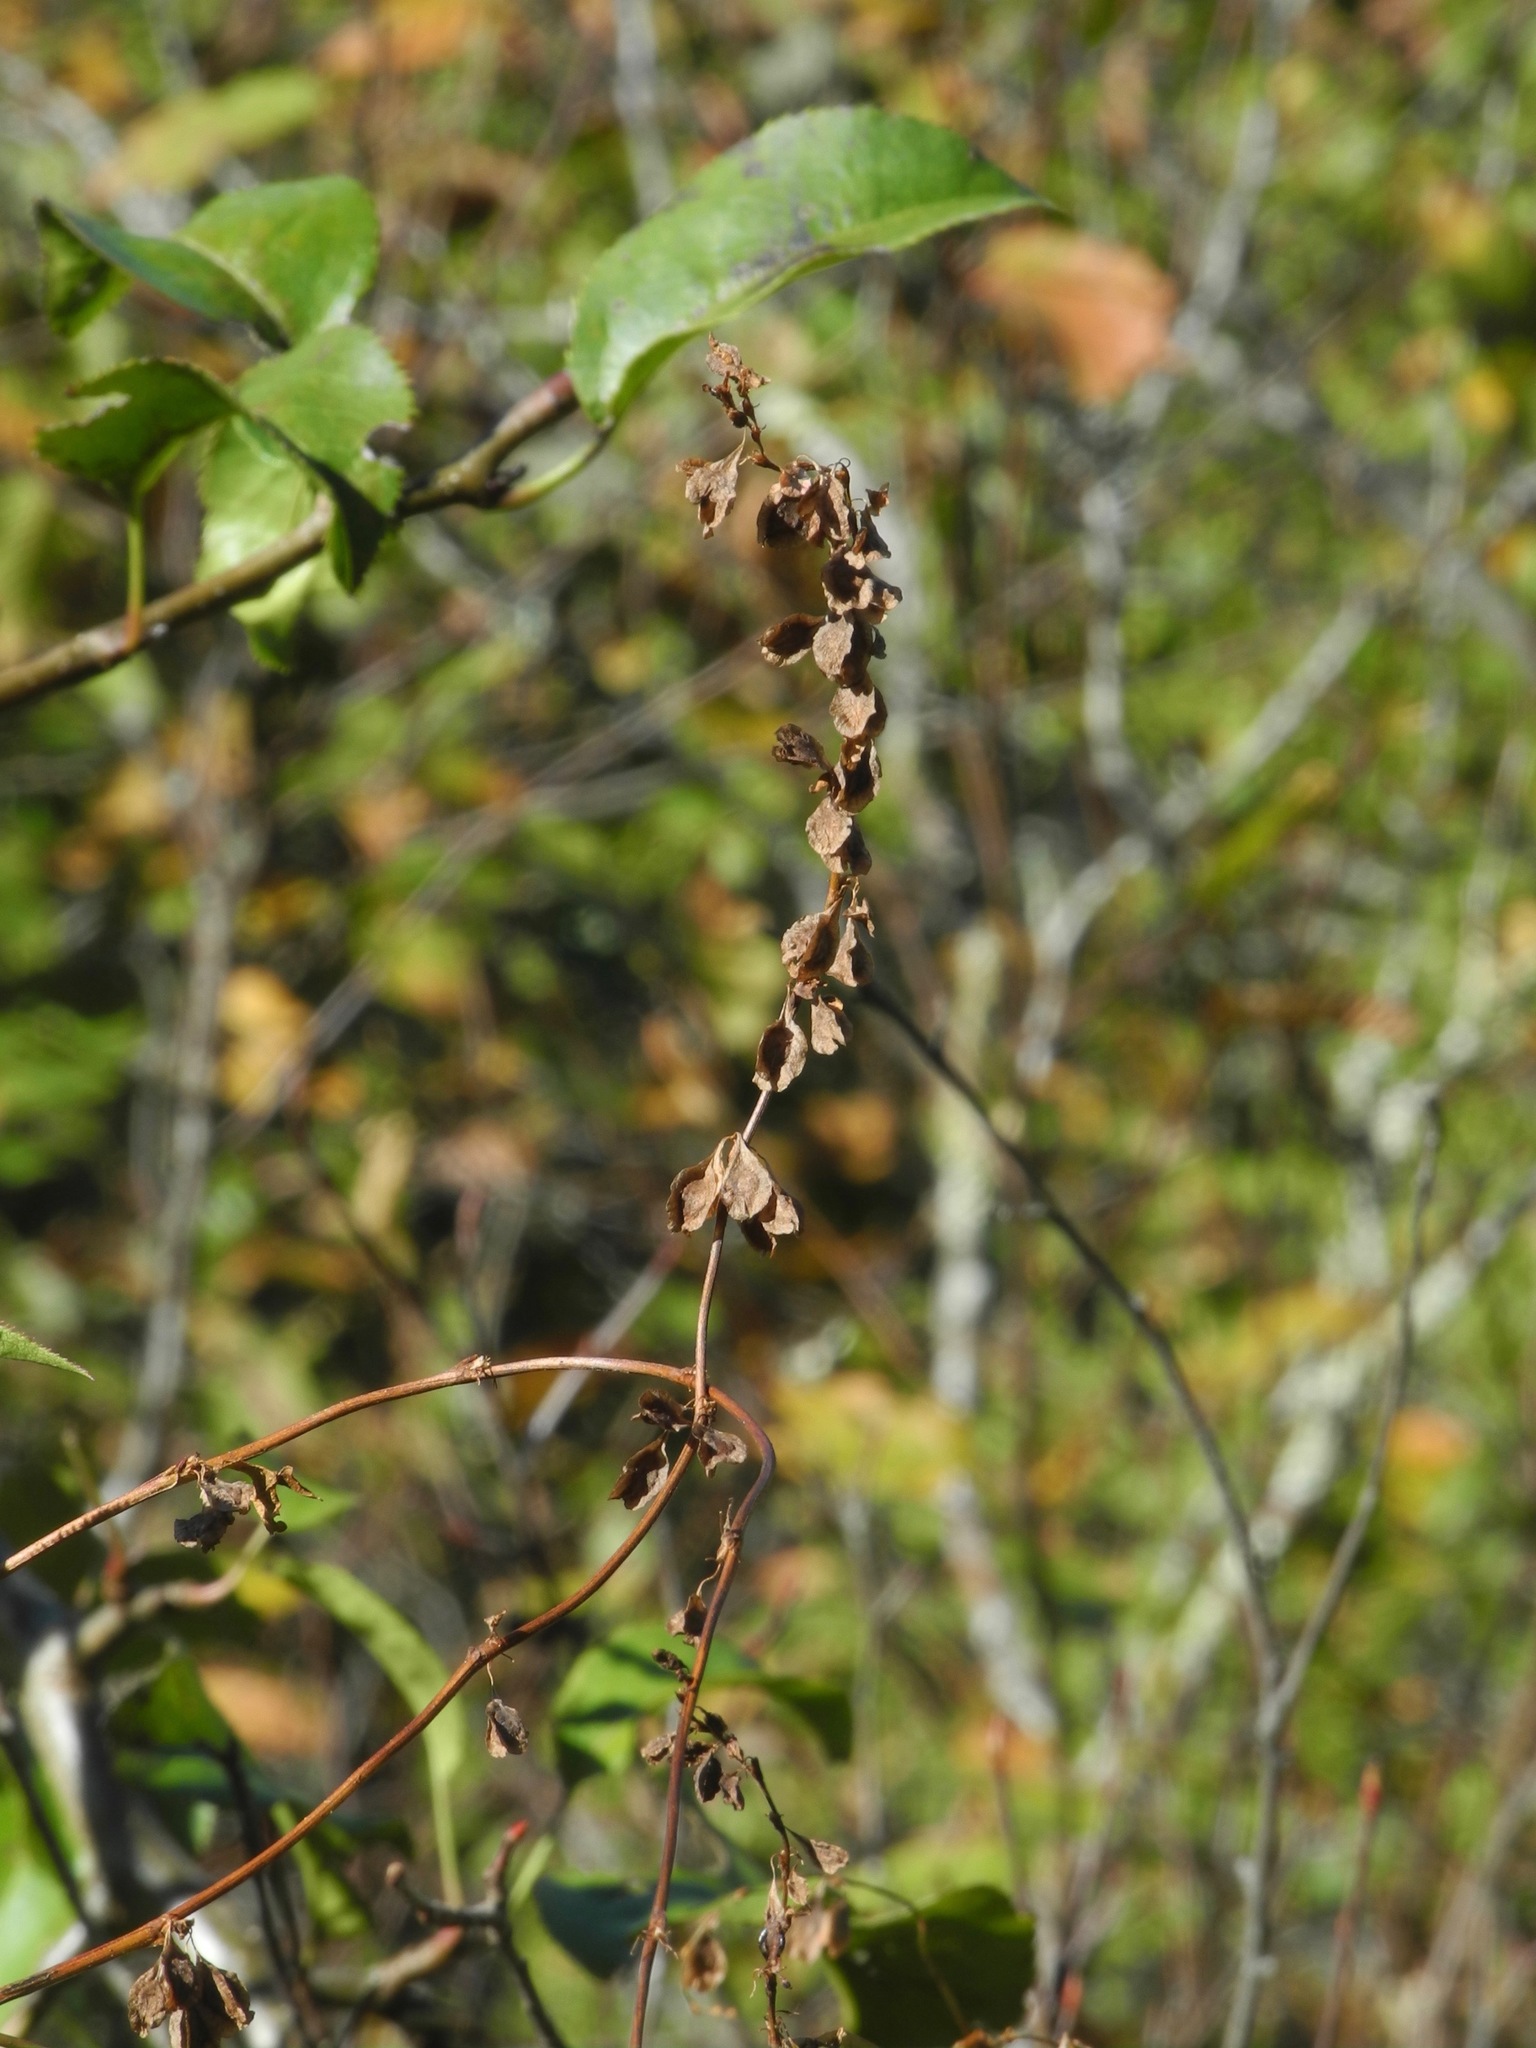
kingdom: Plantae
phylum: Tracheophyta
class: Magnoliopsida
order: Caryophyllales
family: Polygonaceae
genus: Fallopia
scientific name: Fallopia scandens
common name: Climbing false buckwheat
